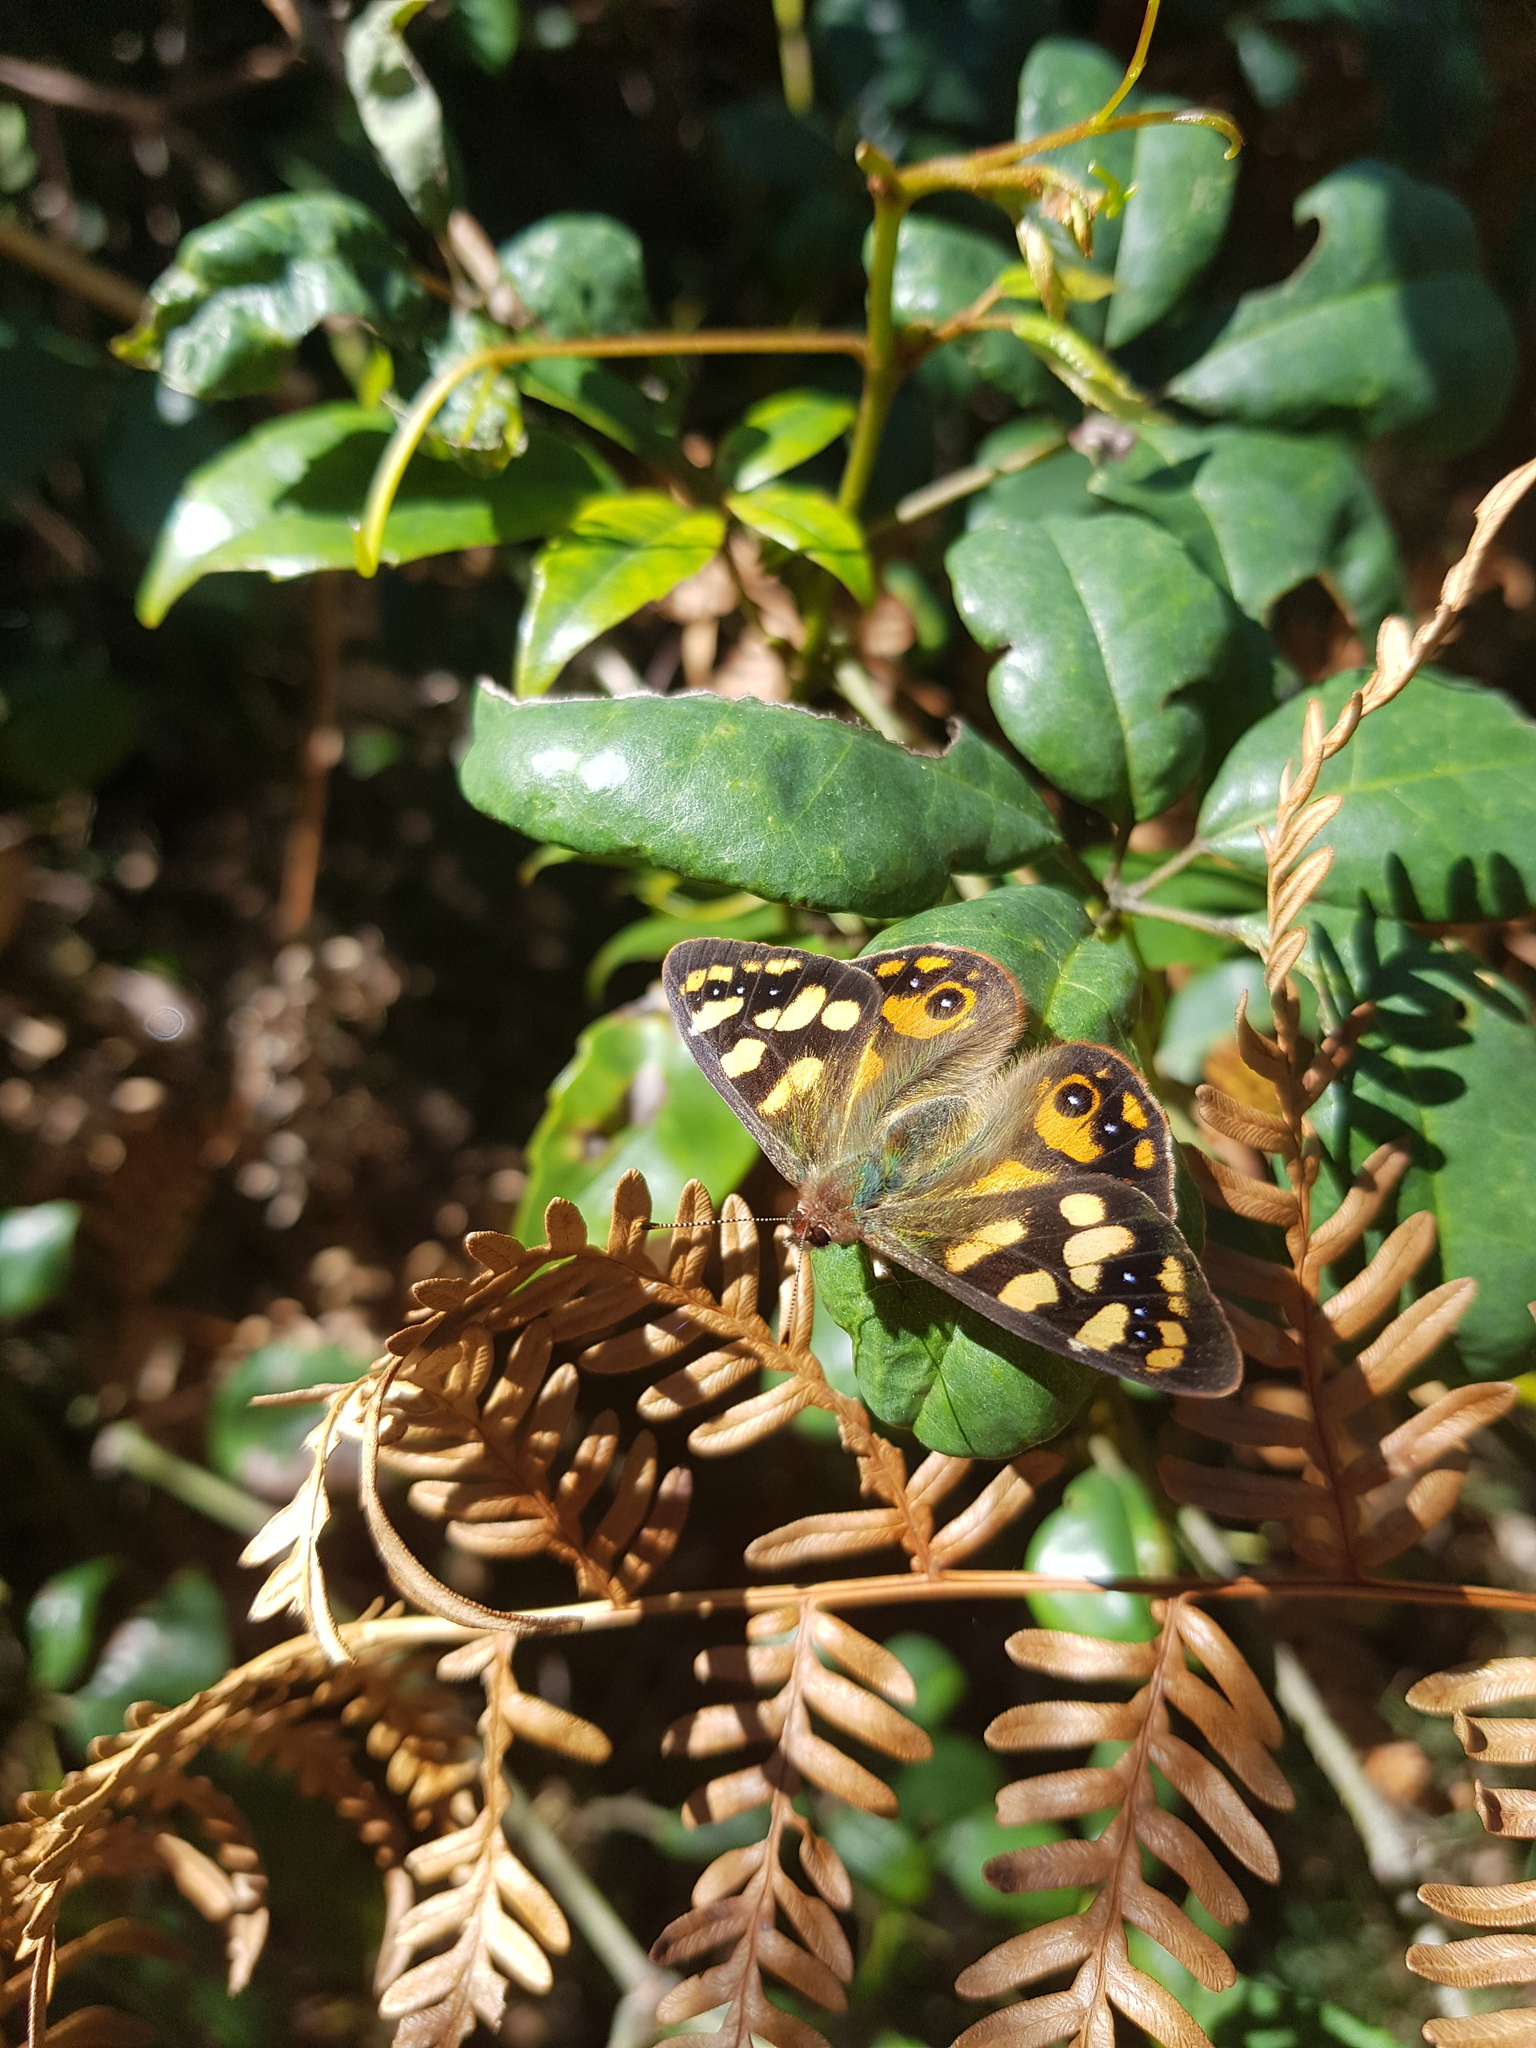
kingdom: Animalia
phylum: Arthropoda
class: Insecta
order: Lepidoptera
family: Nymphalidae
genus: Argynnina
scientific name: Argynnina cyrila
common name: Cyril's brown
